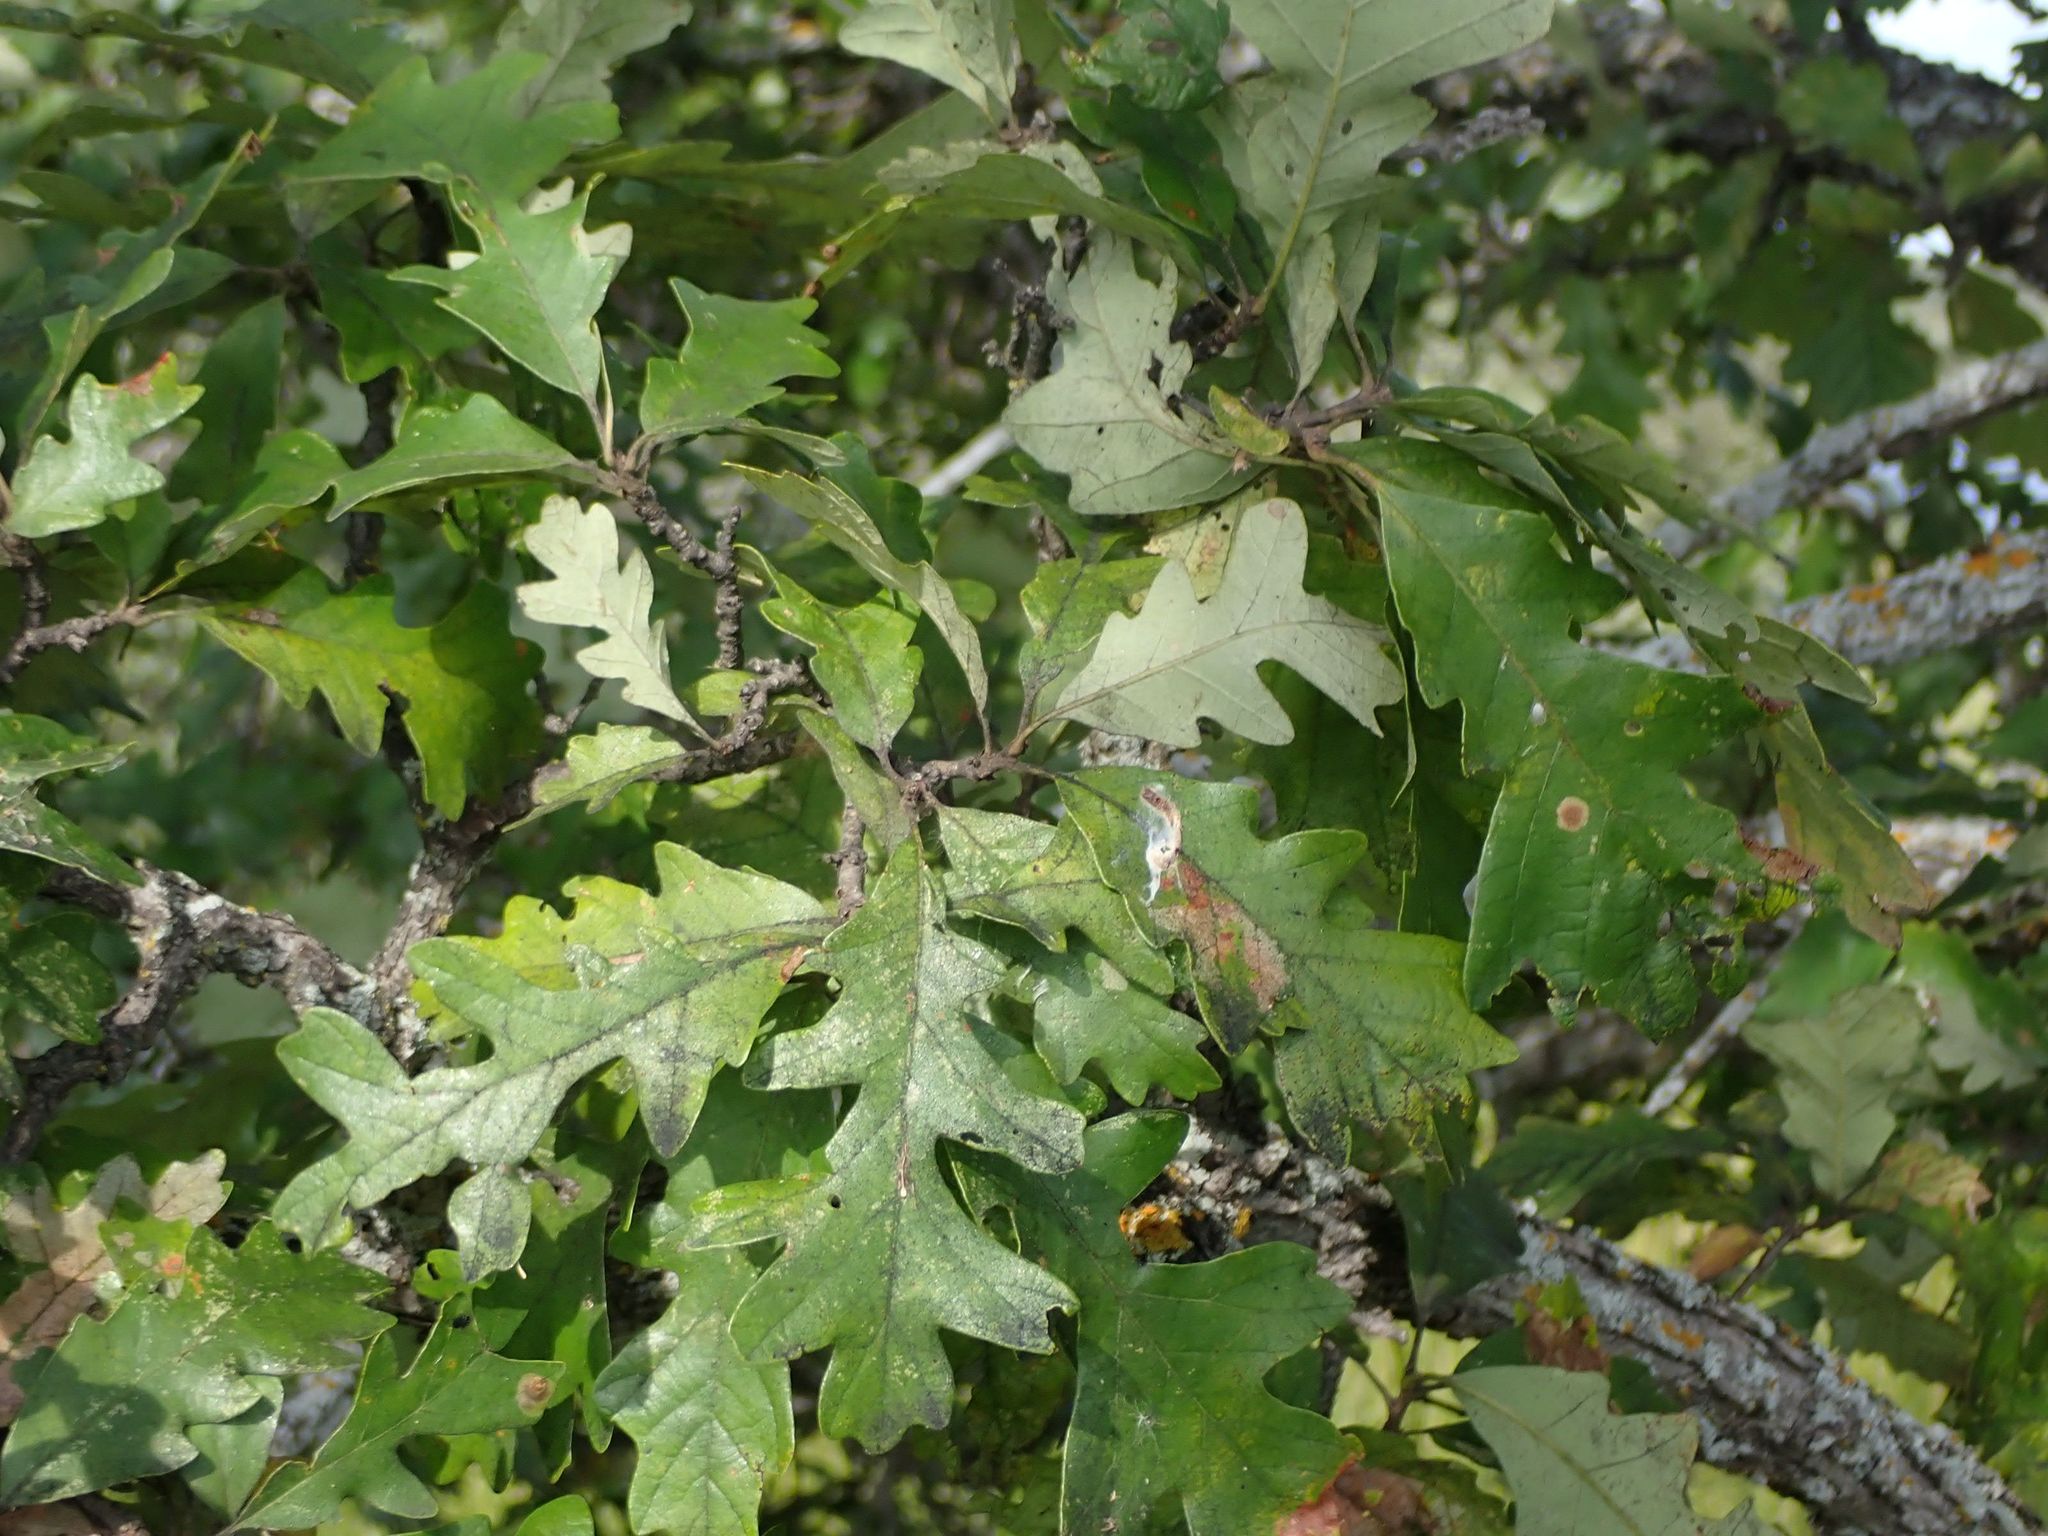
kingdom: Plantae
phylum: Tracheophyta
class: Magnoliopsida
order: Fagales
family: Fagaceae
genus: Quercus
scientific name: Quercus macrocarpa
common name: Bur oak
